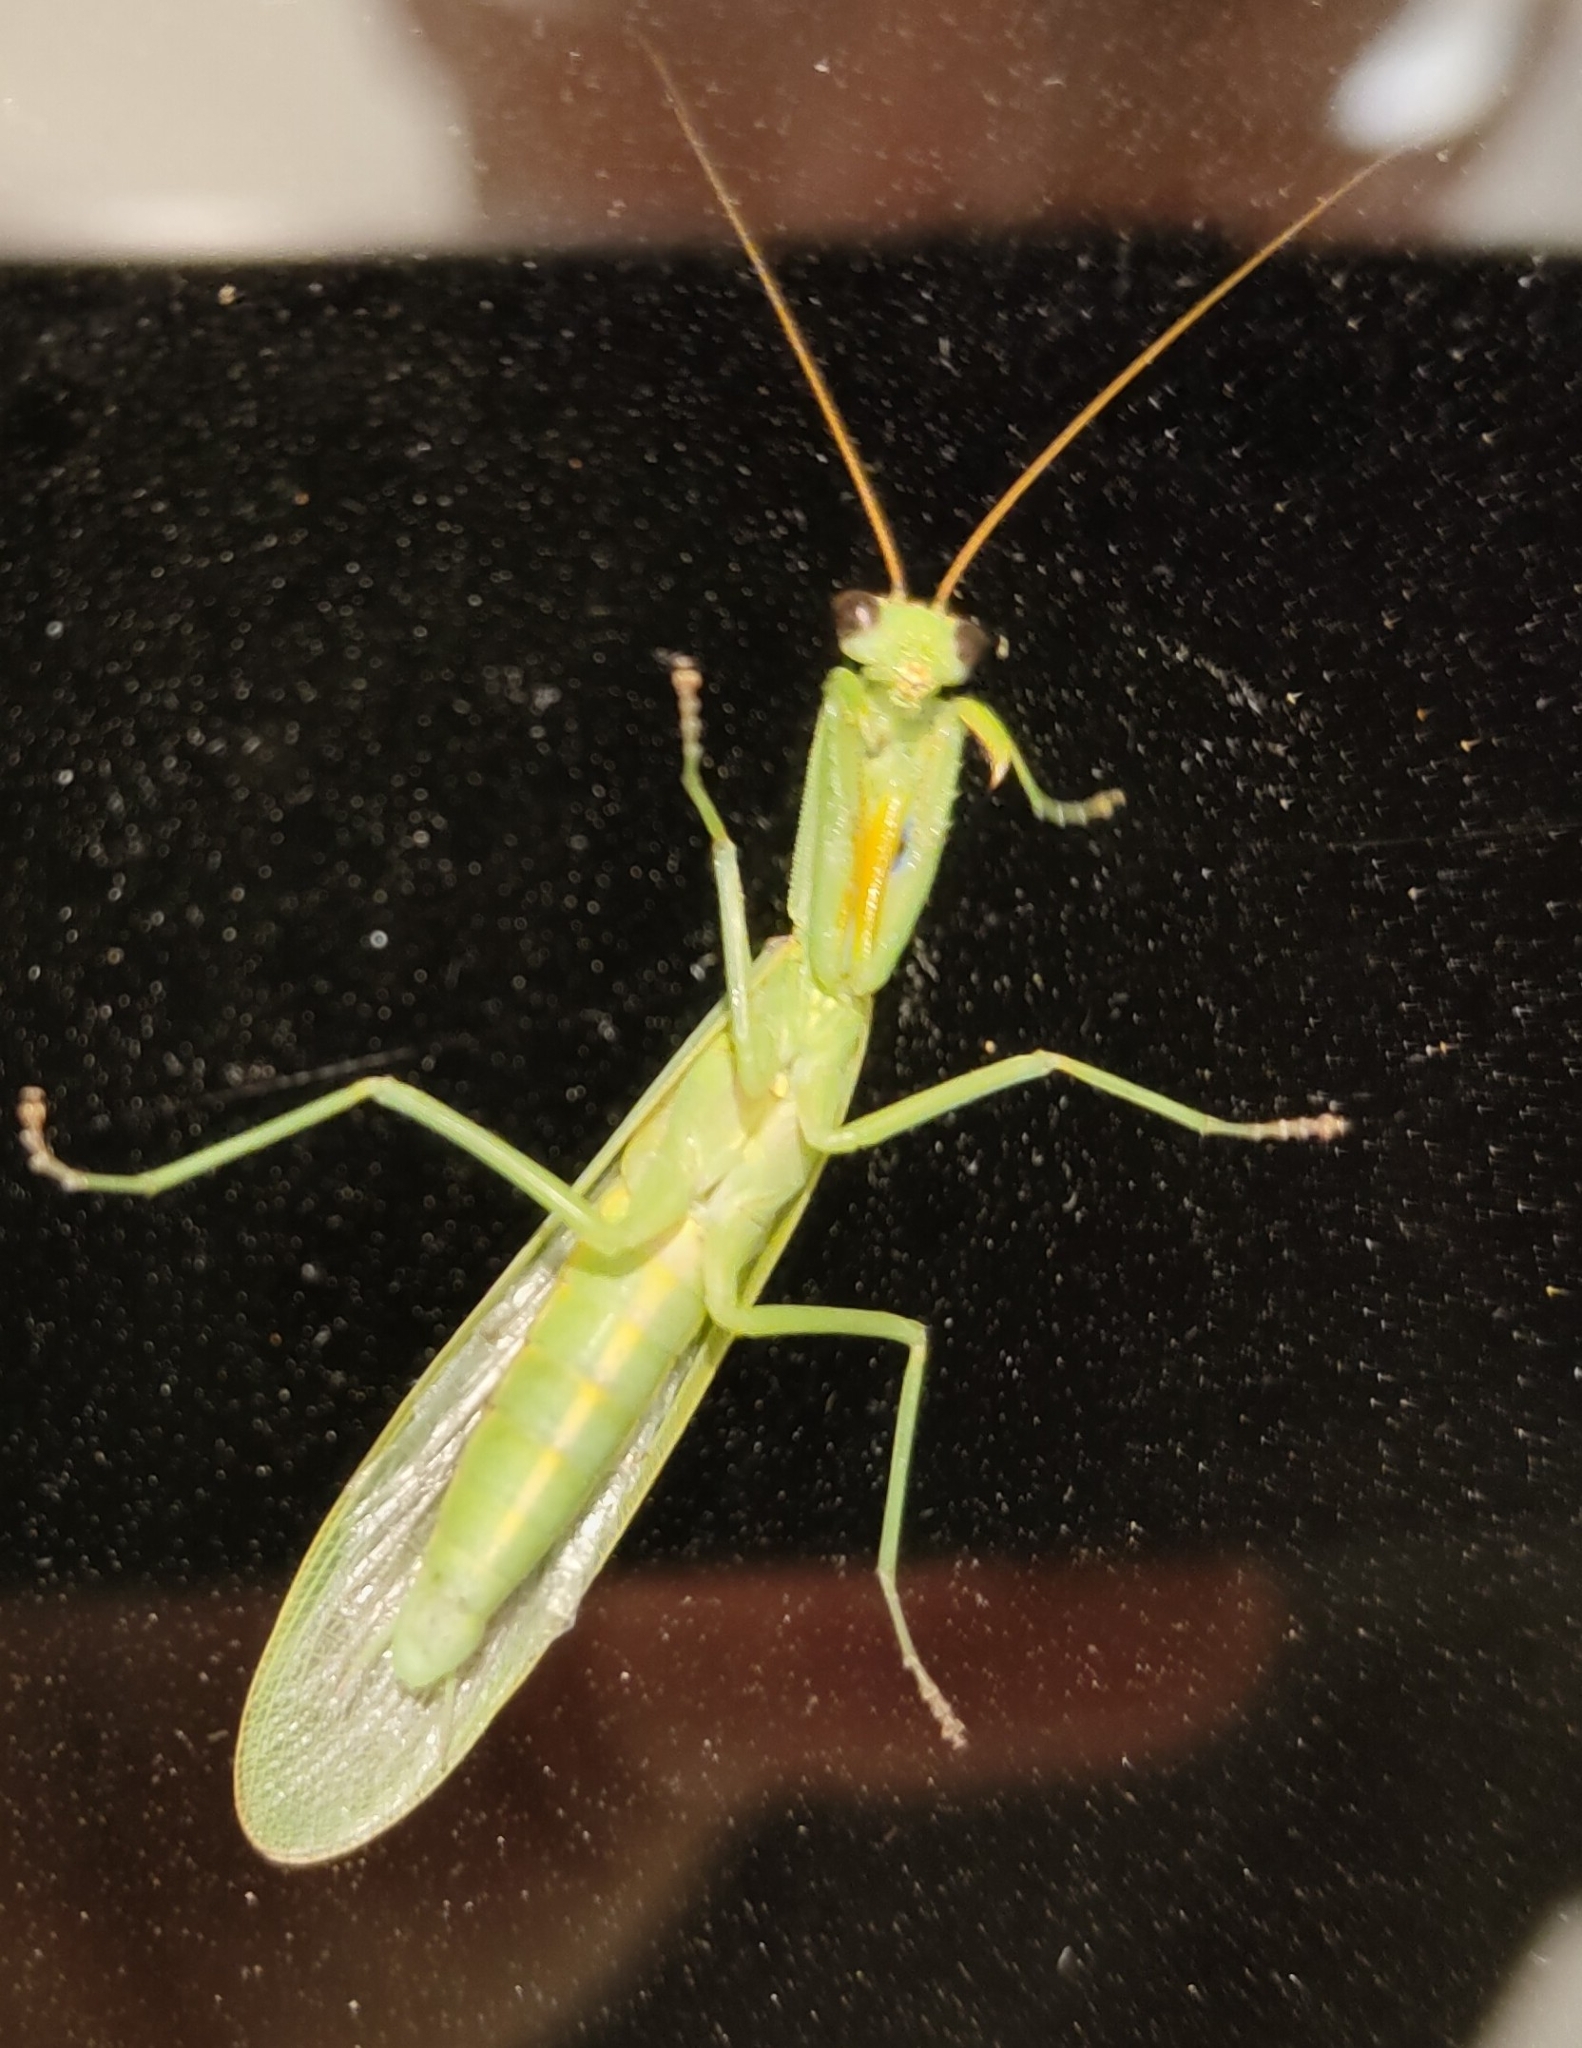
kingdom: Animalia
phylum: Arthropoda
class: Insecta
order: Mantodea
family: Mantidae
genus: Orthodera
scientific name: Orthodera novaezealandiae
